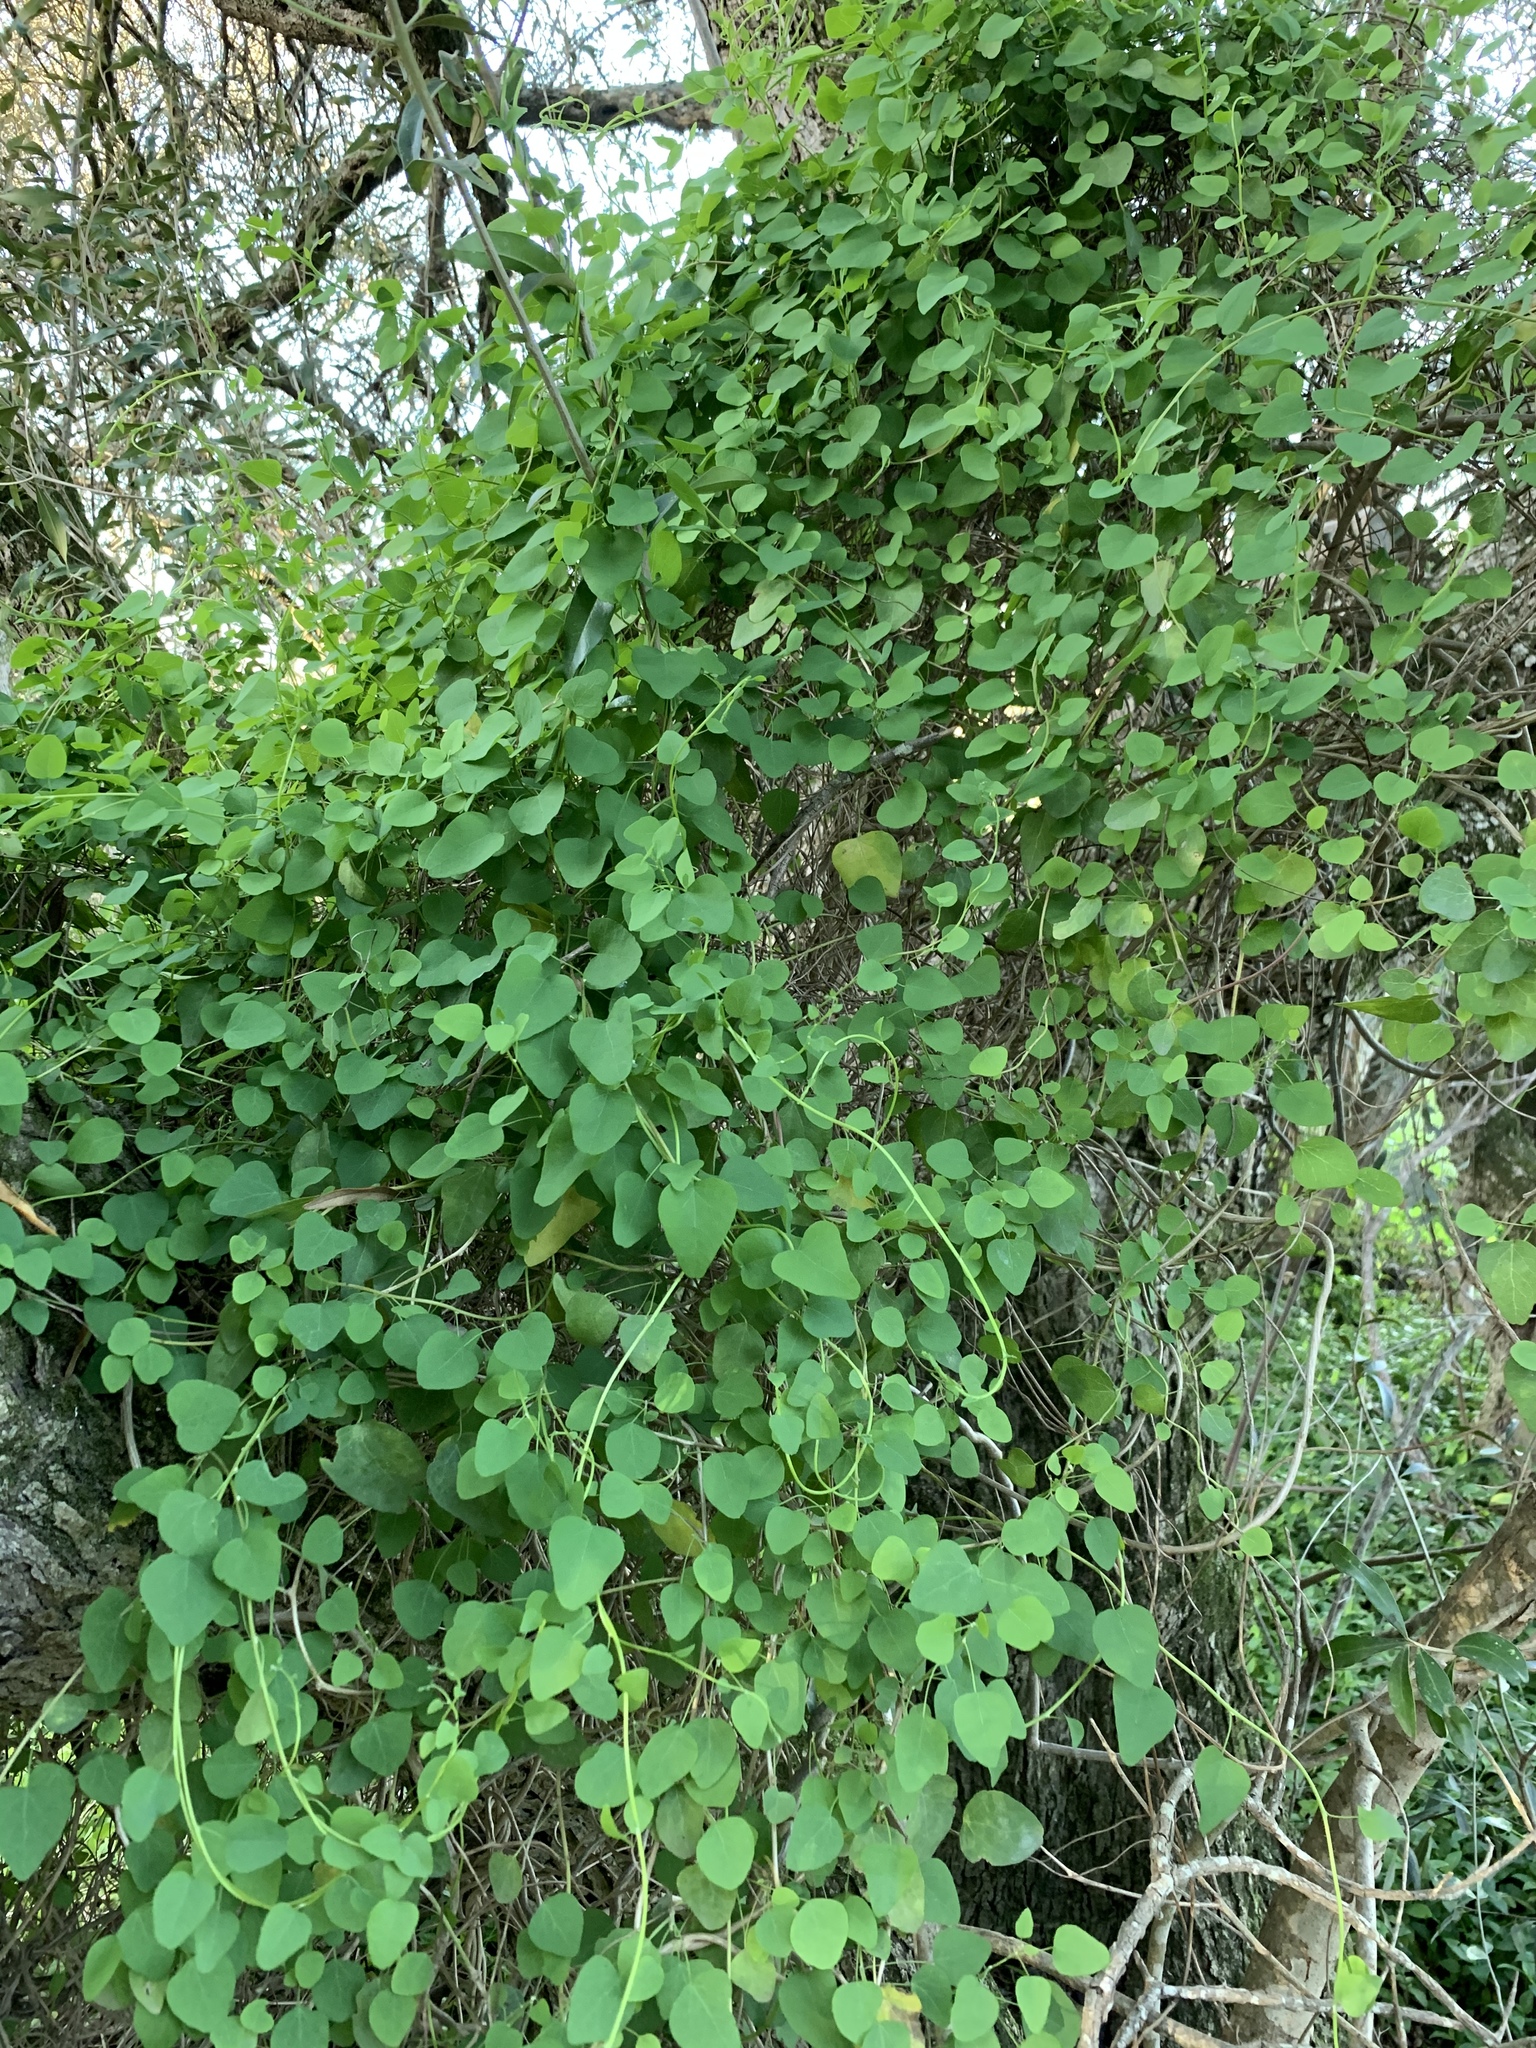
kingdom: Plantae
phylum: Tracheophyta
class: Magnoliopsida
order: Ranunculales
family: Menispermaceae
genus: Cissampelos
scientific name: Cissampelos capensis
